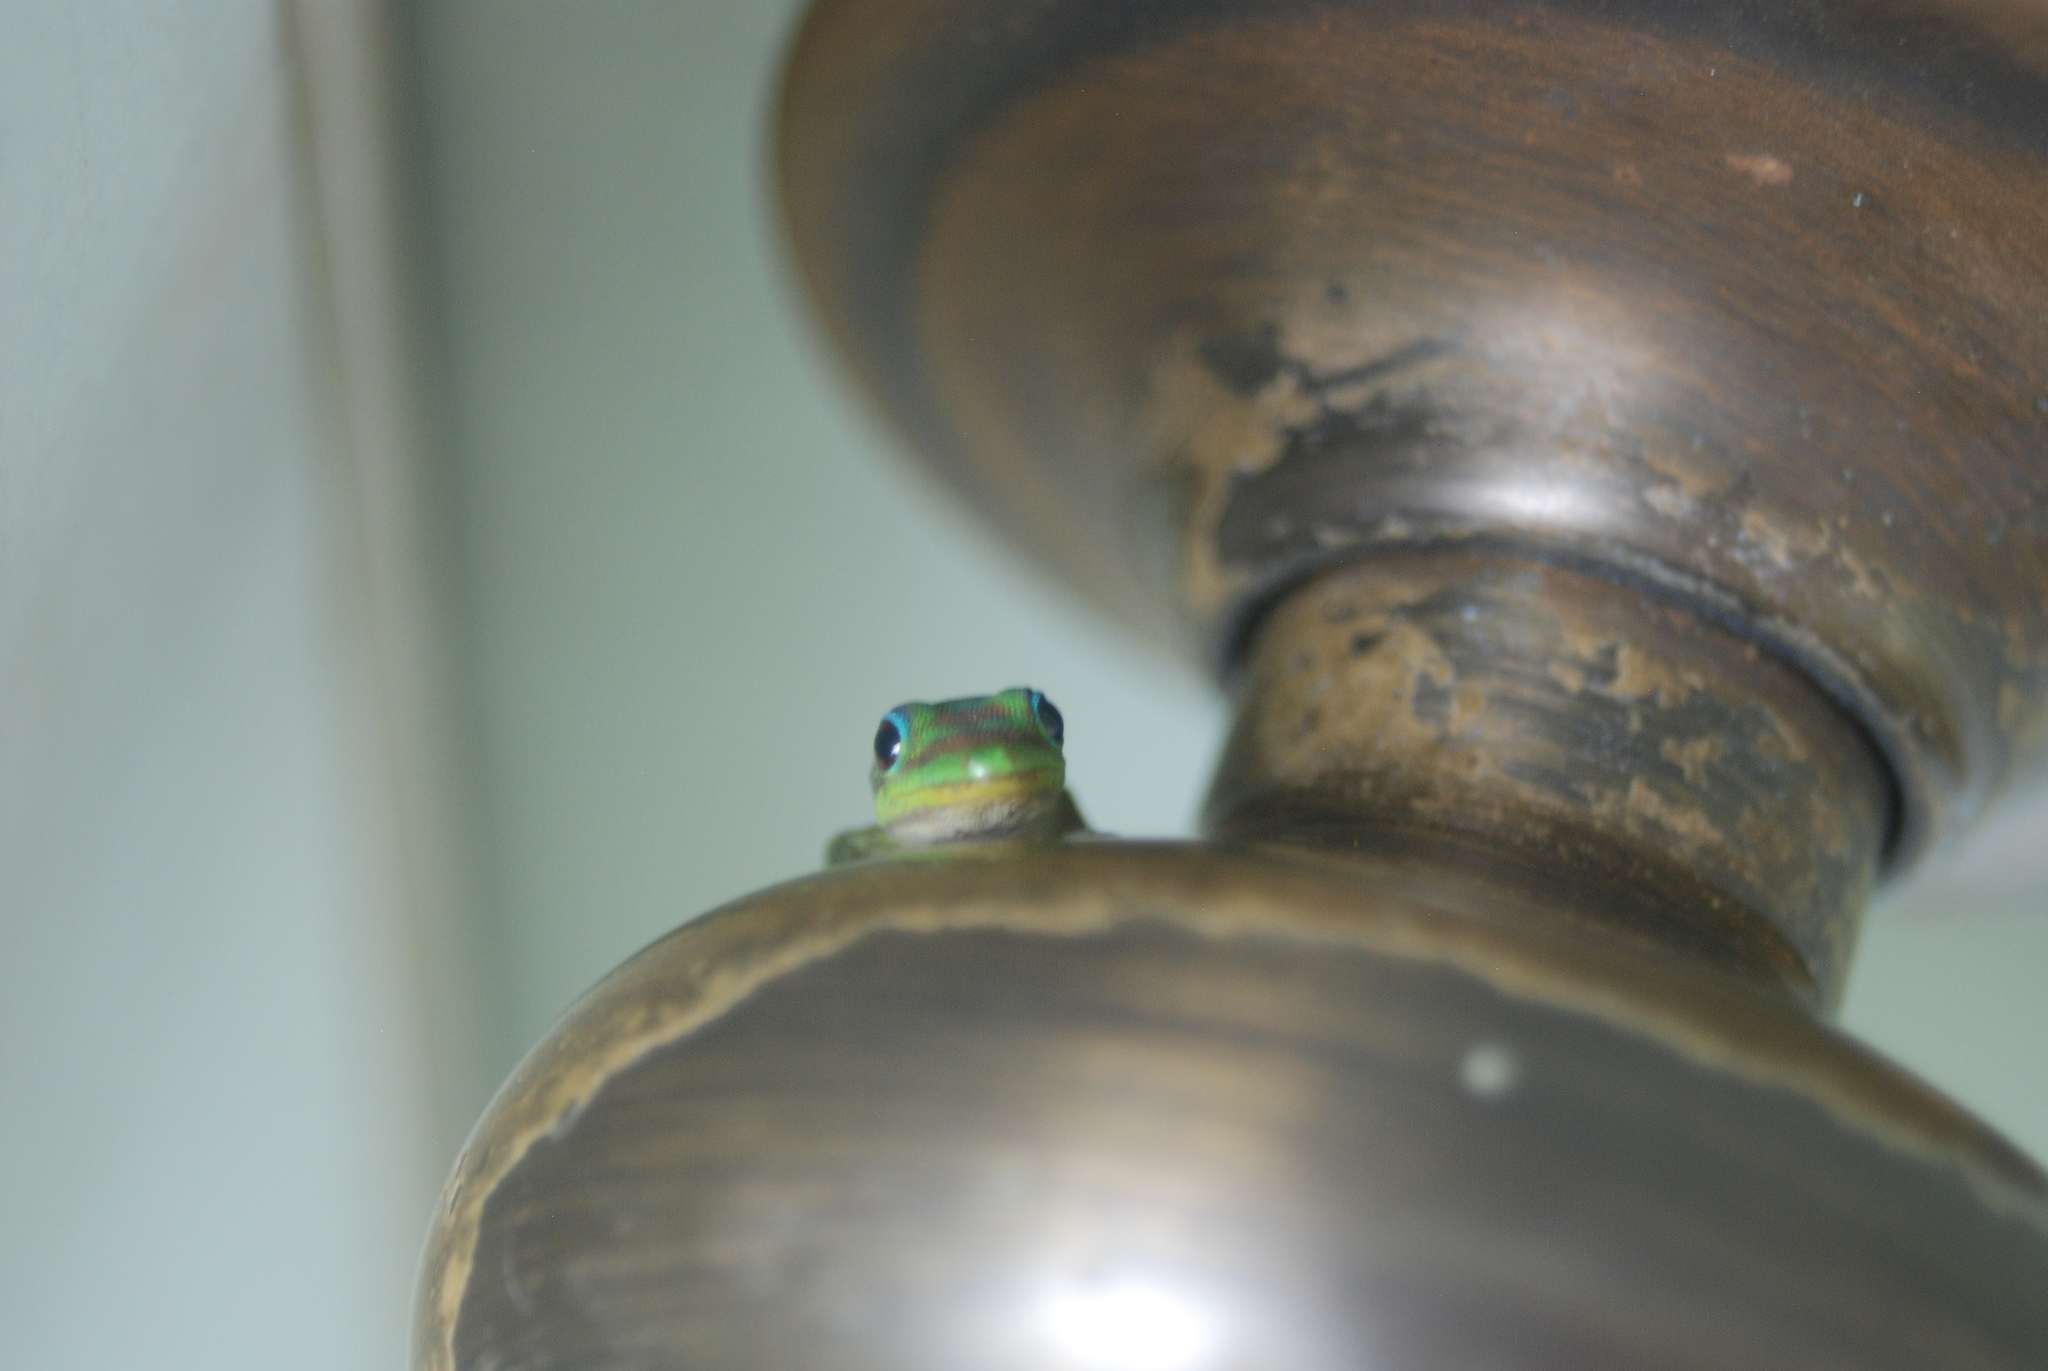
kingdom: Animalia
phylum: Chordata
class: Squamata
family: Gekkonidae
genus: Phelsuma
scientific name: Phelsuma laticauda
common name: Gold dust day gecko
